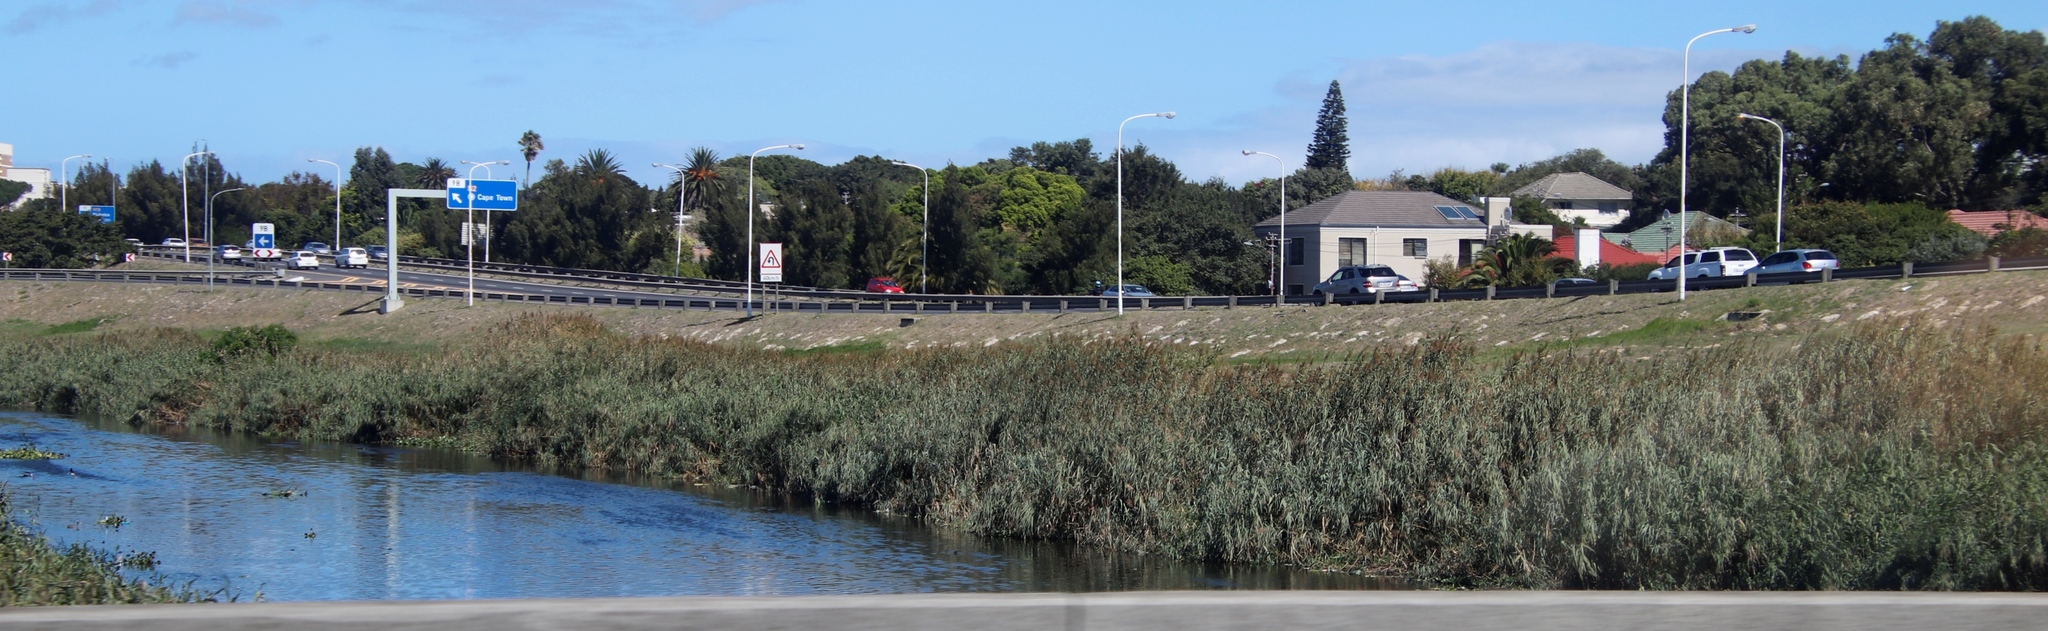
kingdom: Plantae
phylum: Tracheophyta
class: Liliopsida
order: Poales
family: Poaceae
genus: Phragmites
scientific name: Phragmites australis
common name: Common reed
